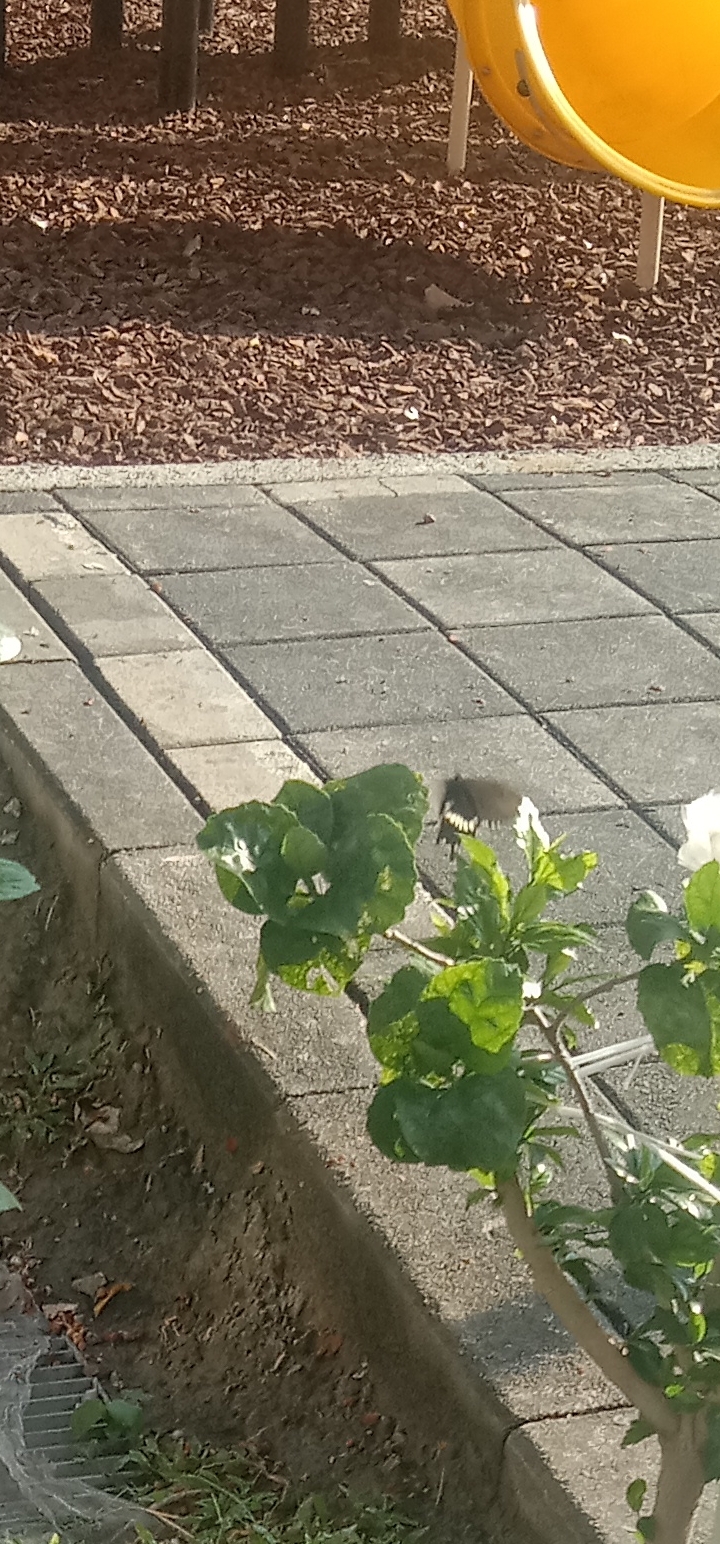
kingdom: Animalia
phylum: Arthropoda
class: Insecta
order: Lepidoptera
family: Papilionidae
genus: Papilio
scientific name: Papilio polytes
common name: Common mormon
